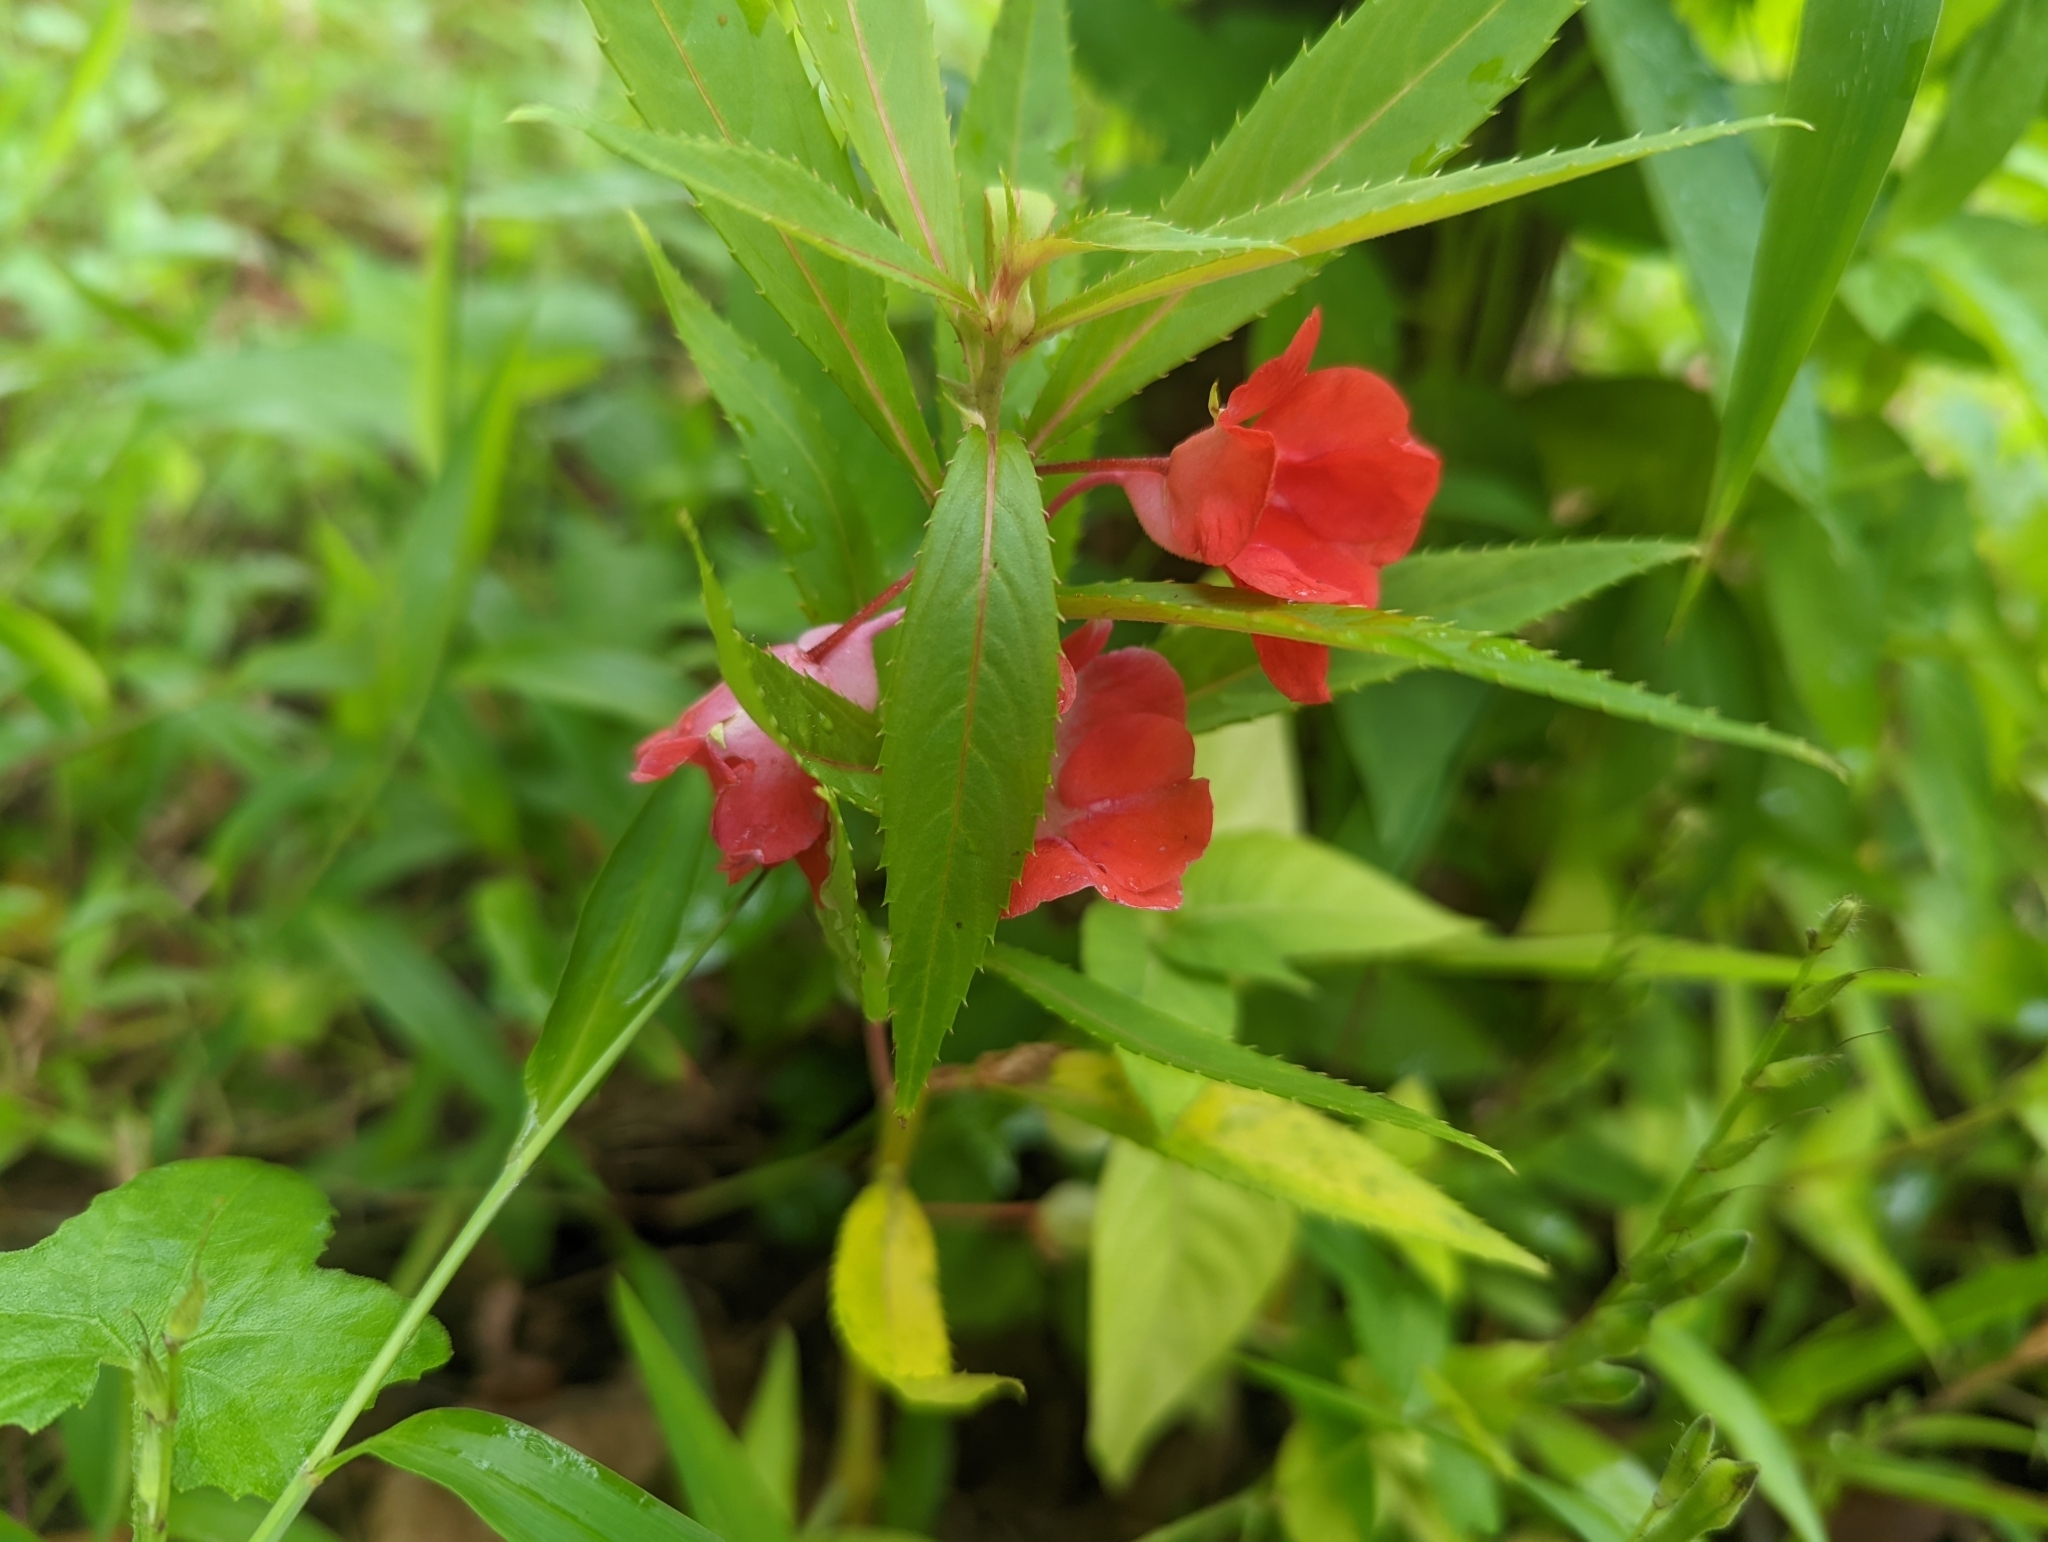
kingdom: Plantae
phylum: Tracheophyta
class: Magnoliopsida
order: Ericales
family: Balsaminaceae
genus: Impatiens
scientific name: Impatiens balsamina
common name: Balsam
